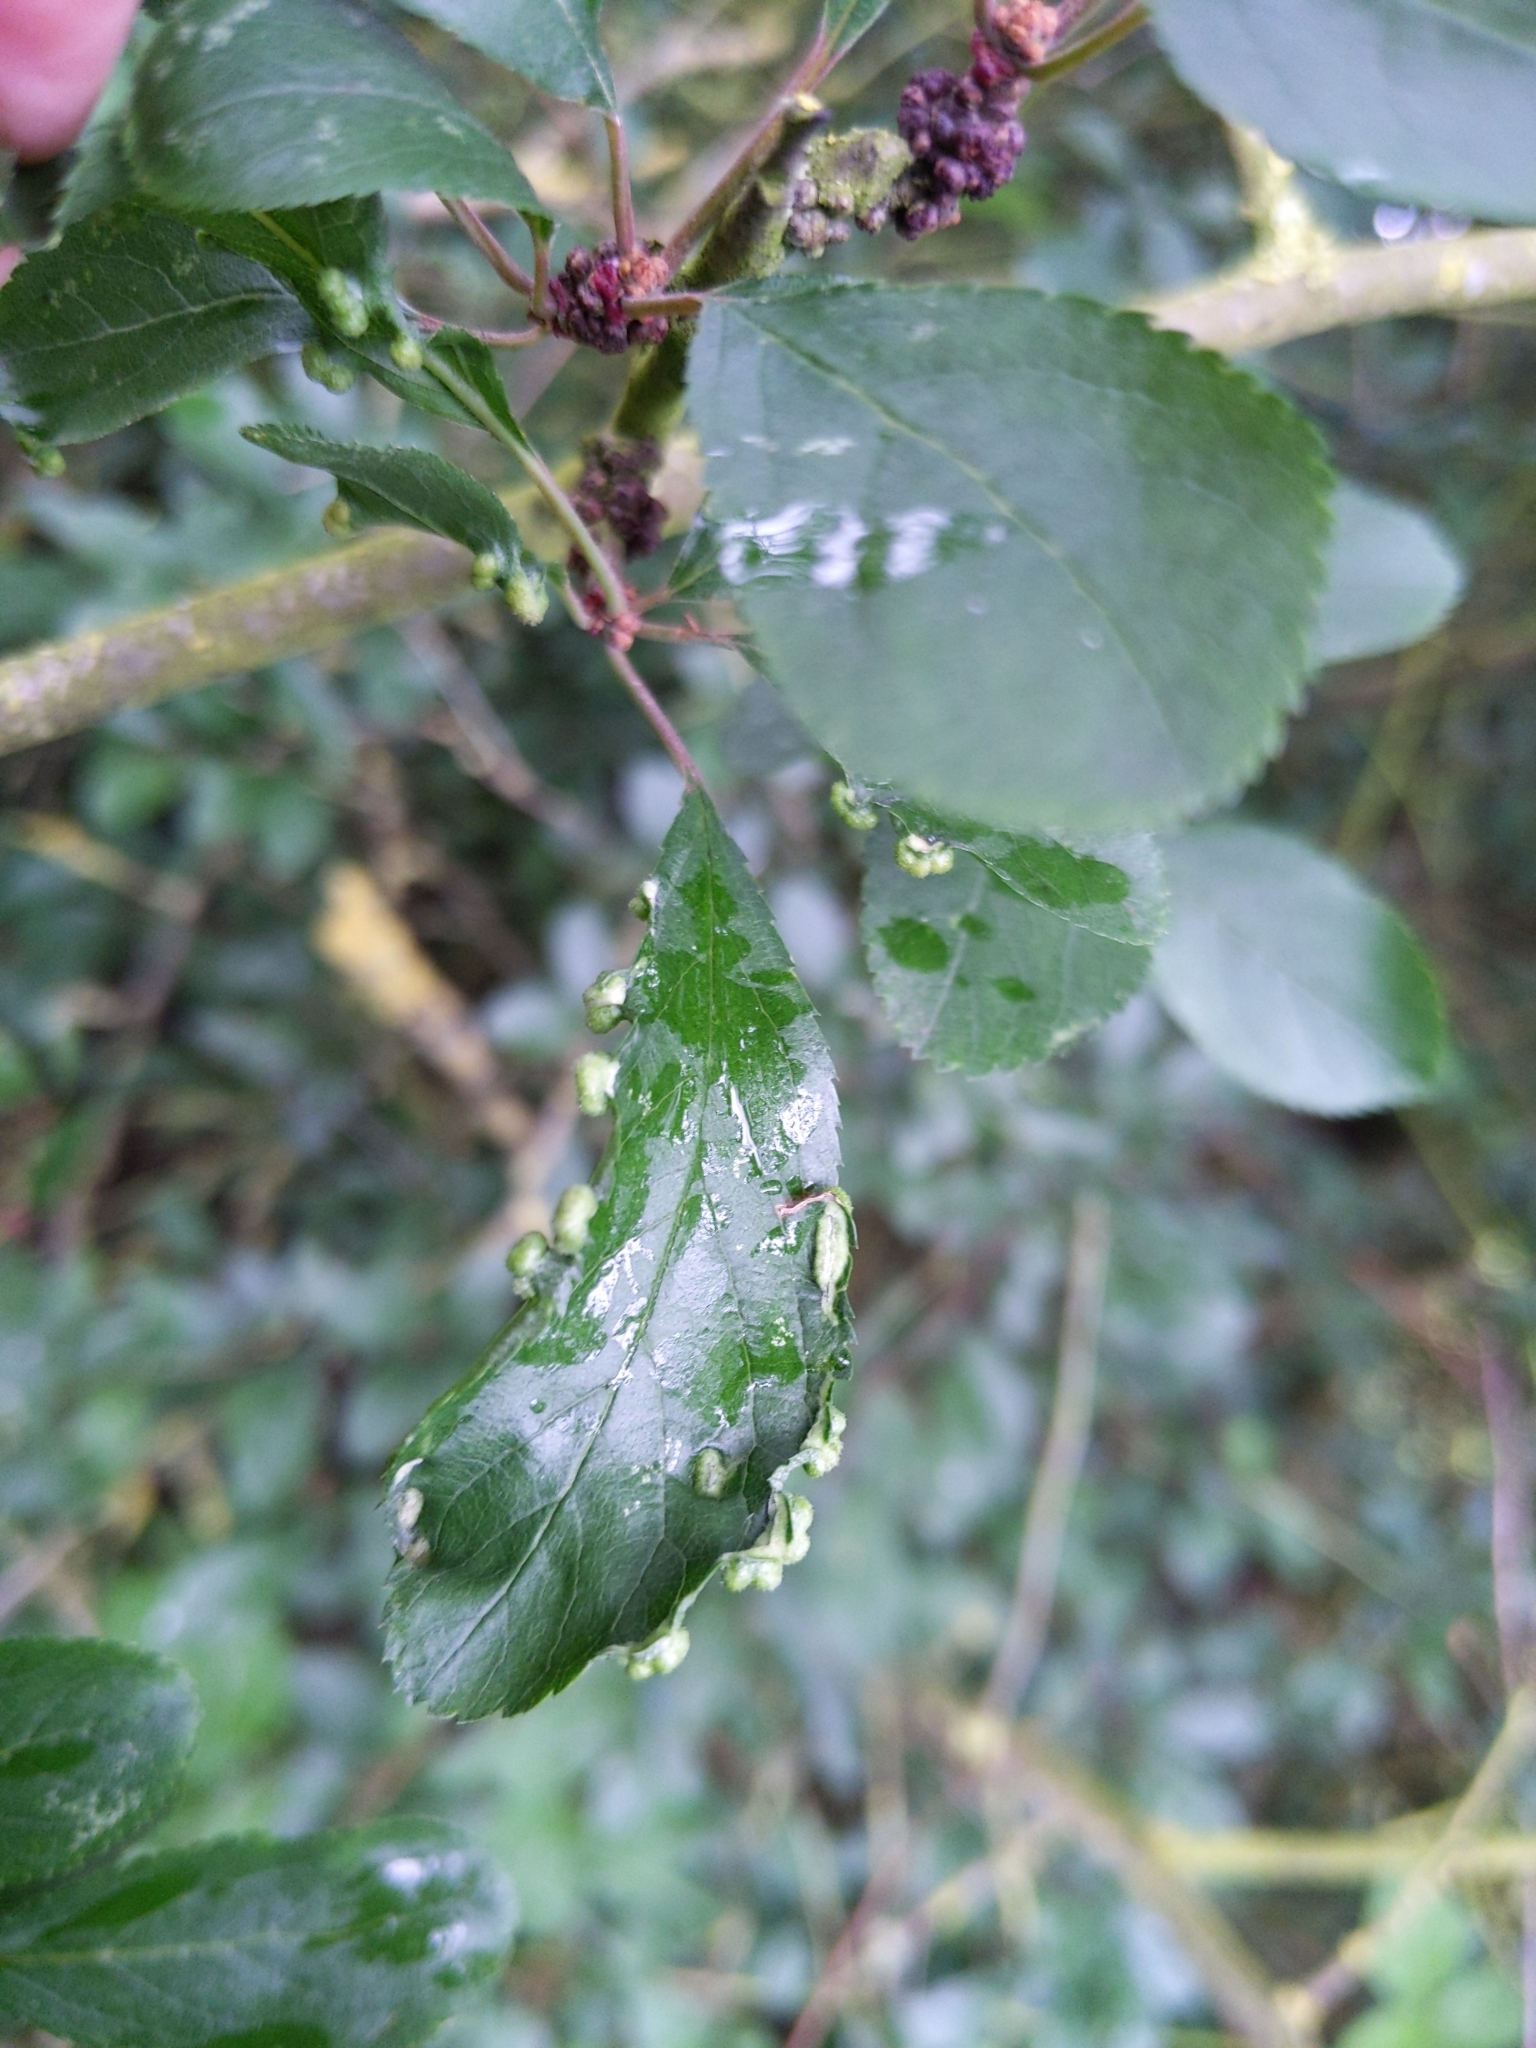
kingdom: Animalia
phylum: Arthropoda
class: Arachnida
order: Trombidiformes
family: Eriophyidae
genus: Eriophyes
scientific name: Eriophyes similis
